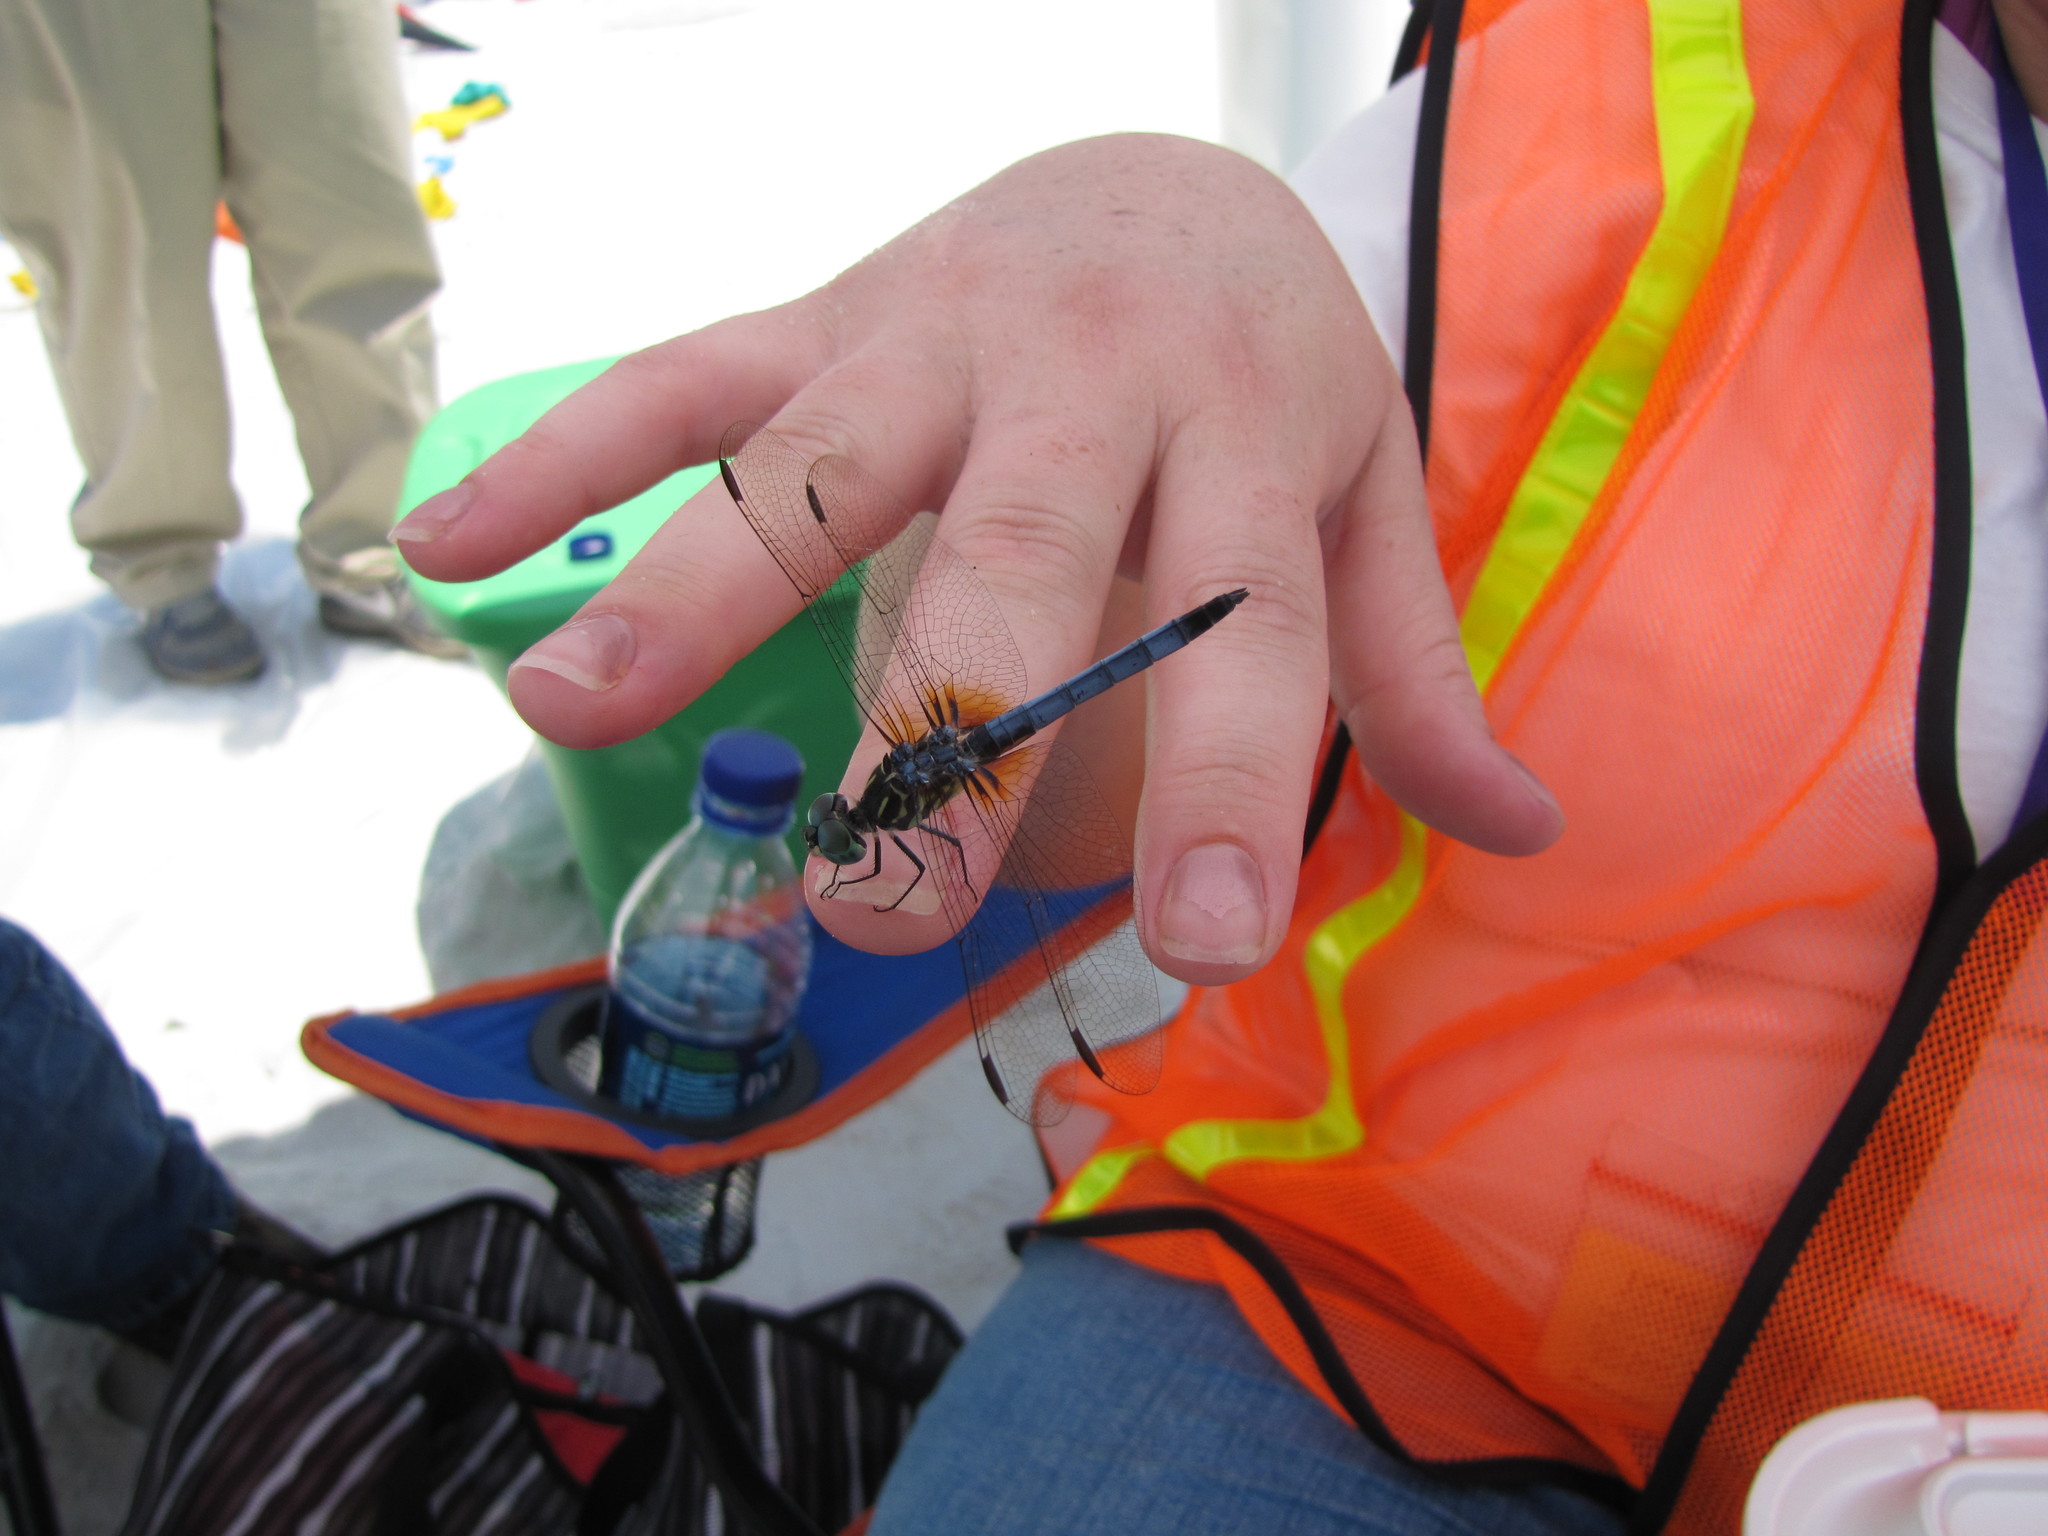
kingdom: Animalia
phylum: Arthropoda
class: Insecta
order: Odonata
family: Libellulidae
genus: Pachydiplax
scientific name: Pachydiplax longipennis
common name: Blue dasher
